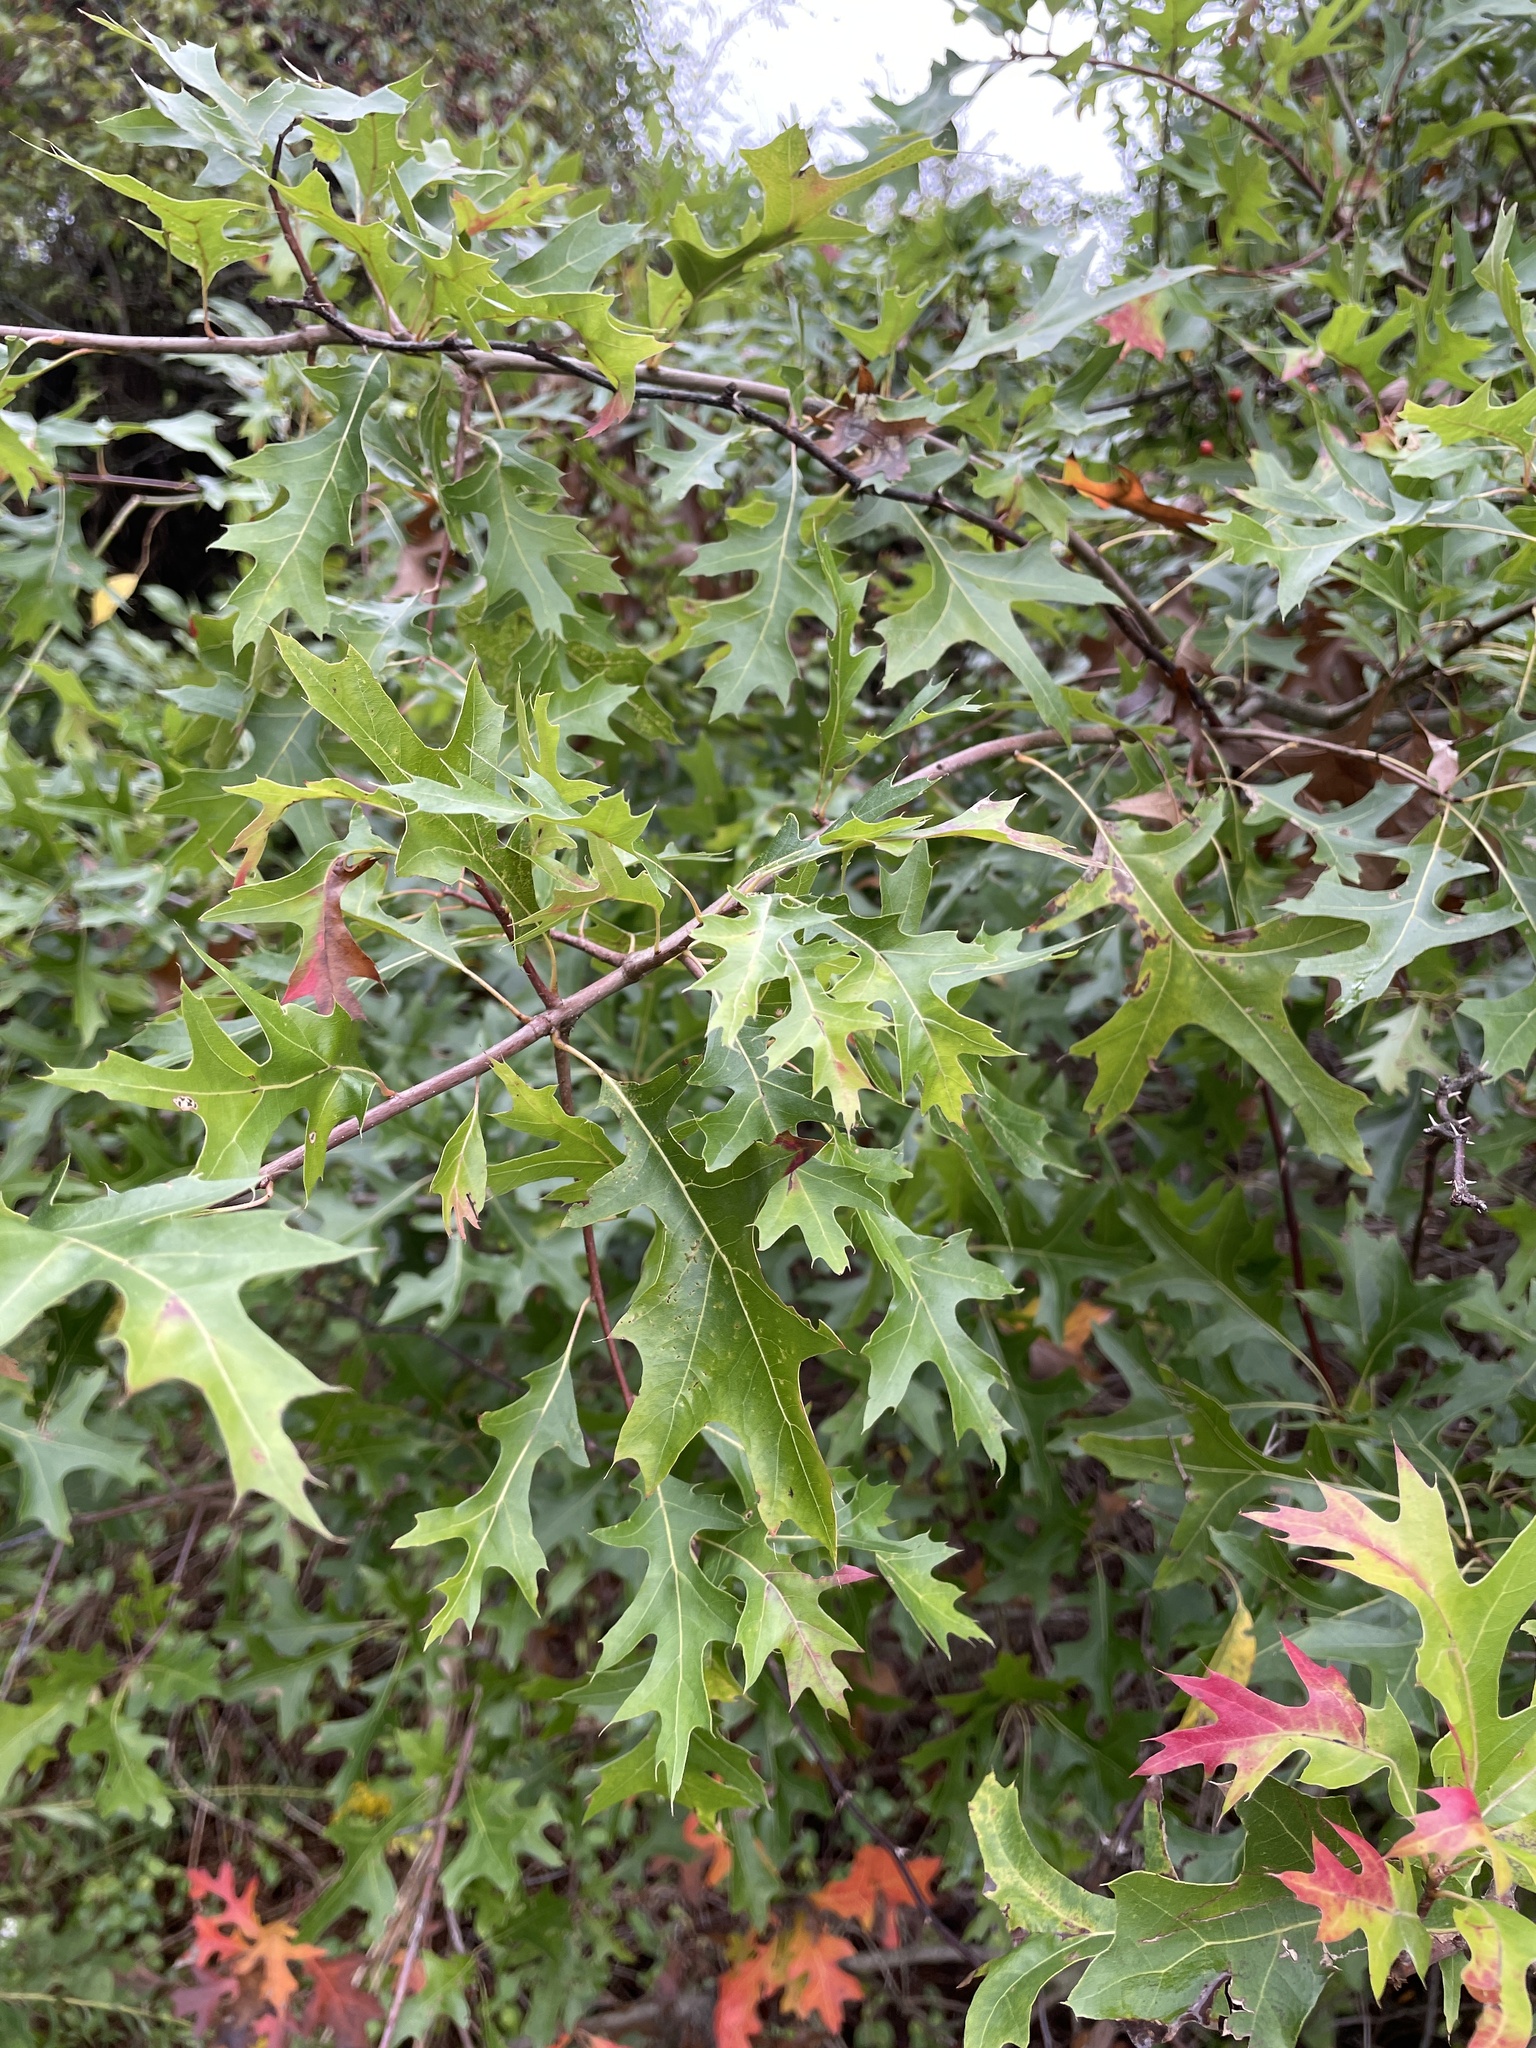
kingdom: Plantae
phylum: Tracheophyta
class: Magnoliopsida
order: Fagales
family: Fagaceae
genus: Quercus
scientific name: Quercus palustris
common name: Pin oak
